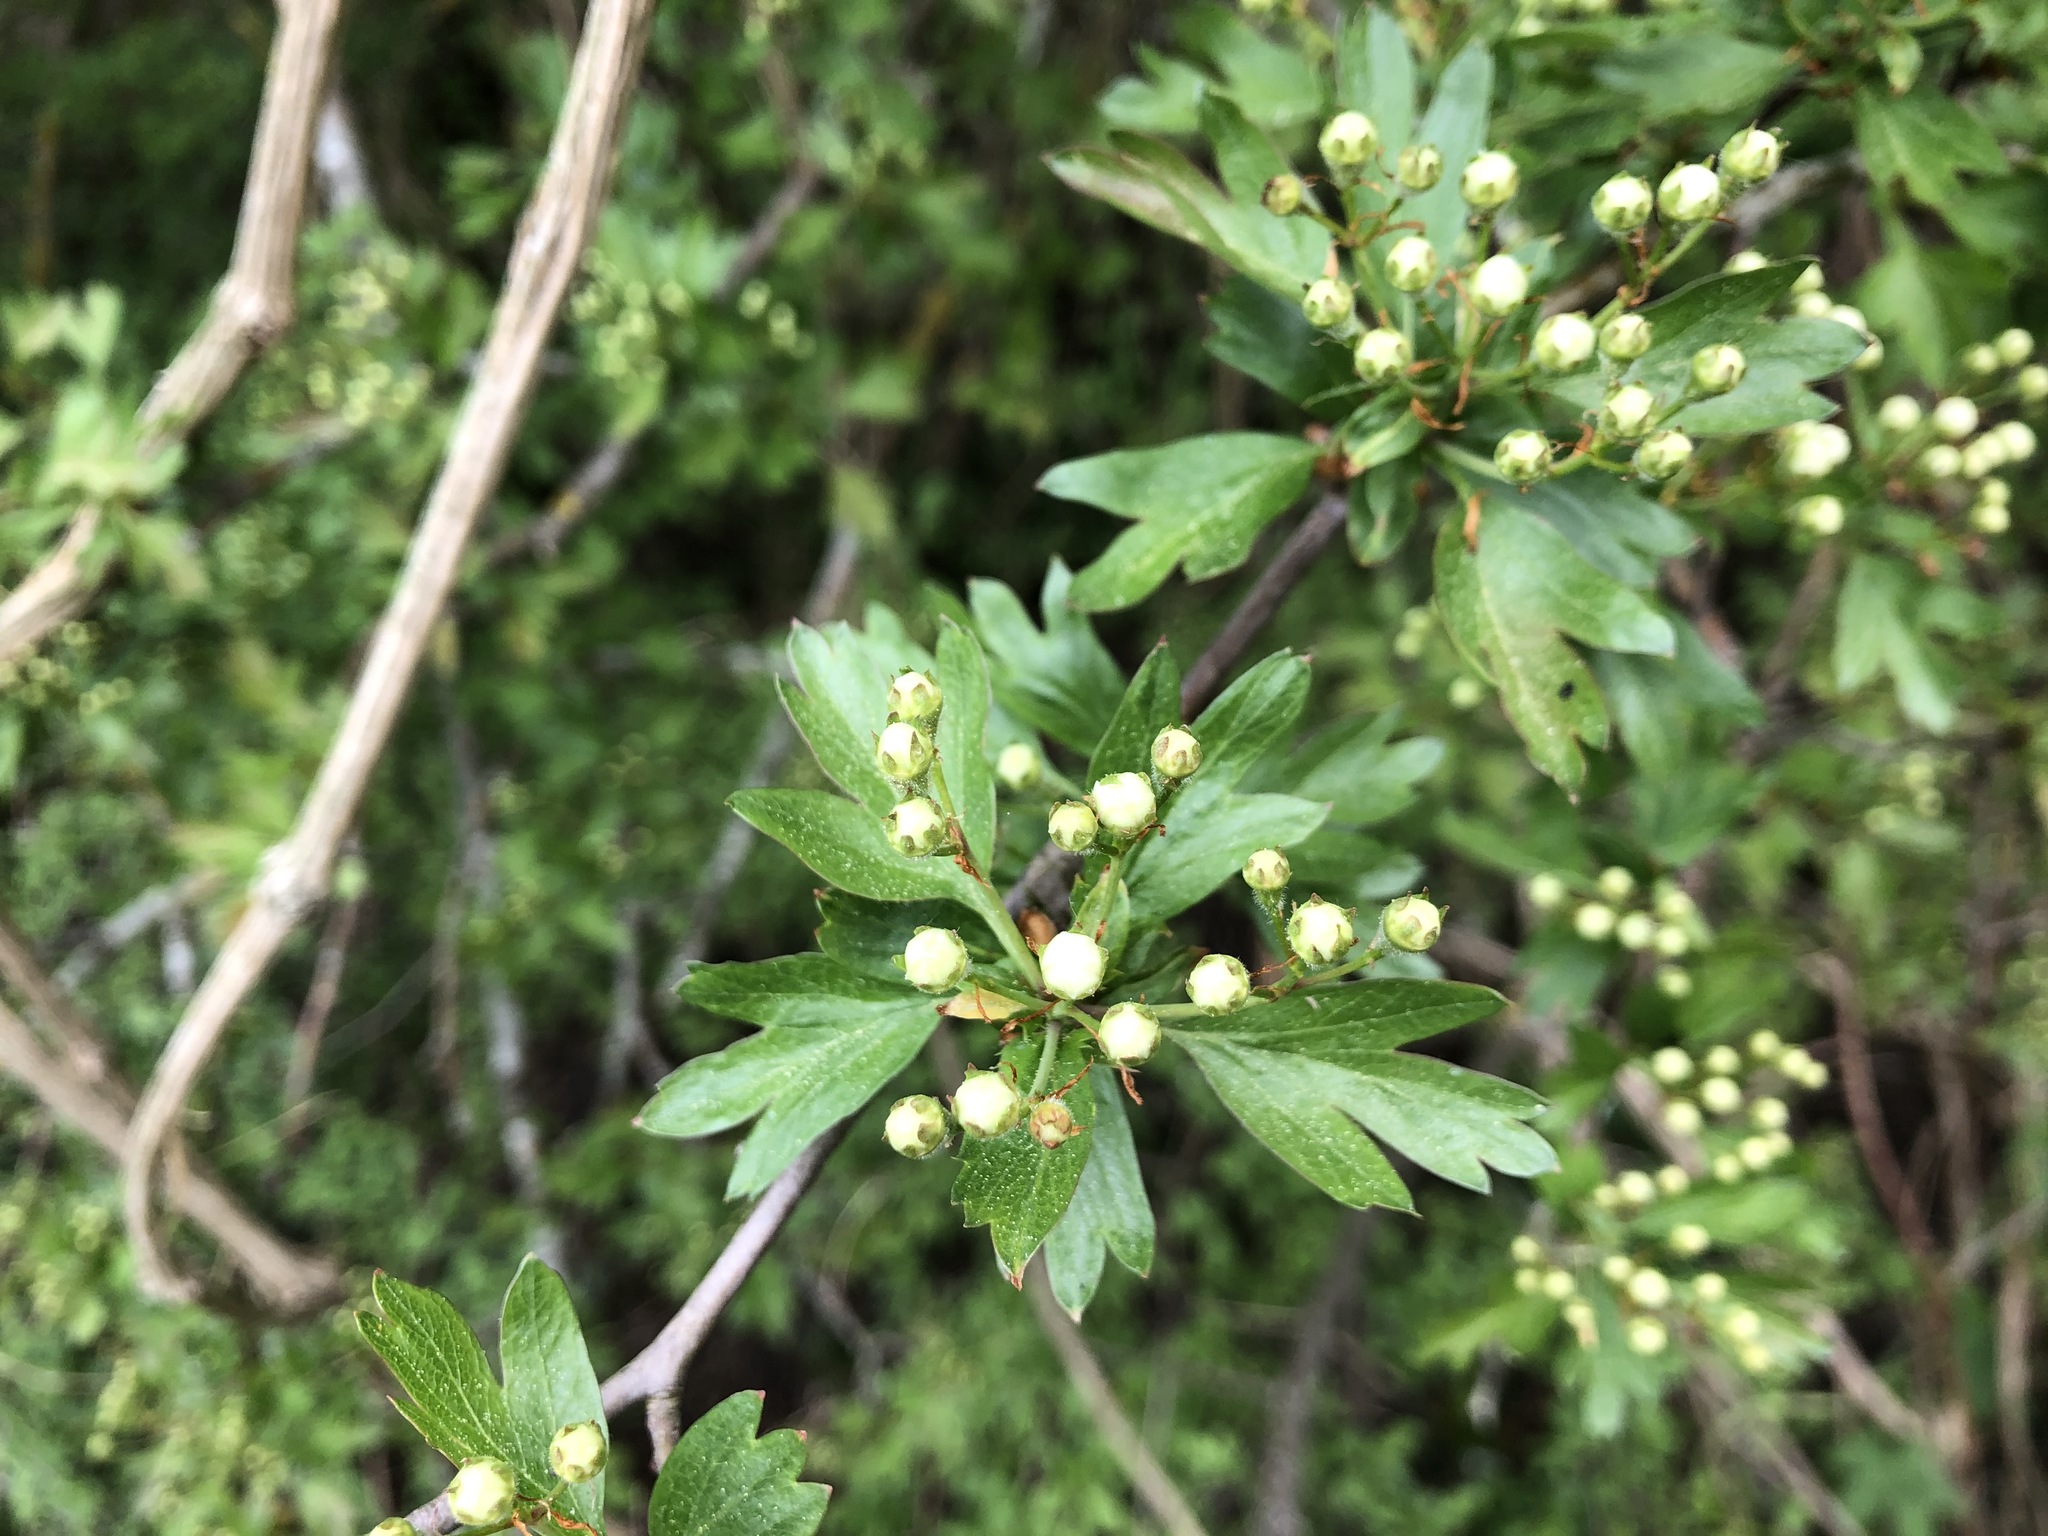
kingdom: Plantae
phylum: Tracheophyta
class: Magnoliopsida
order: Rosales
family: Rosaceae
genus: Crataegus
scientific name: Crataegus monogyna
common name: Hawthorn
